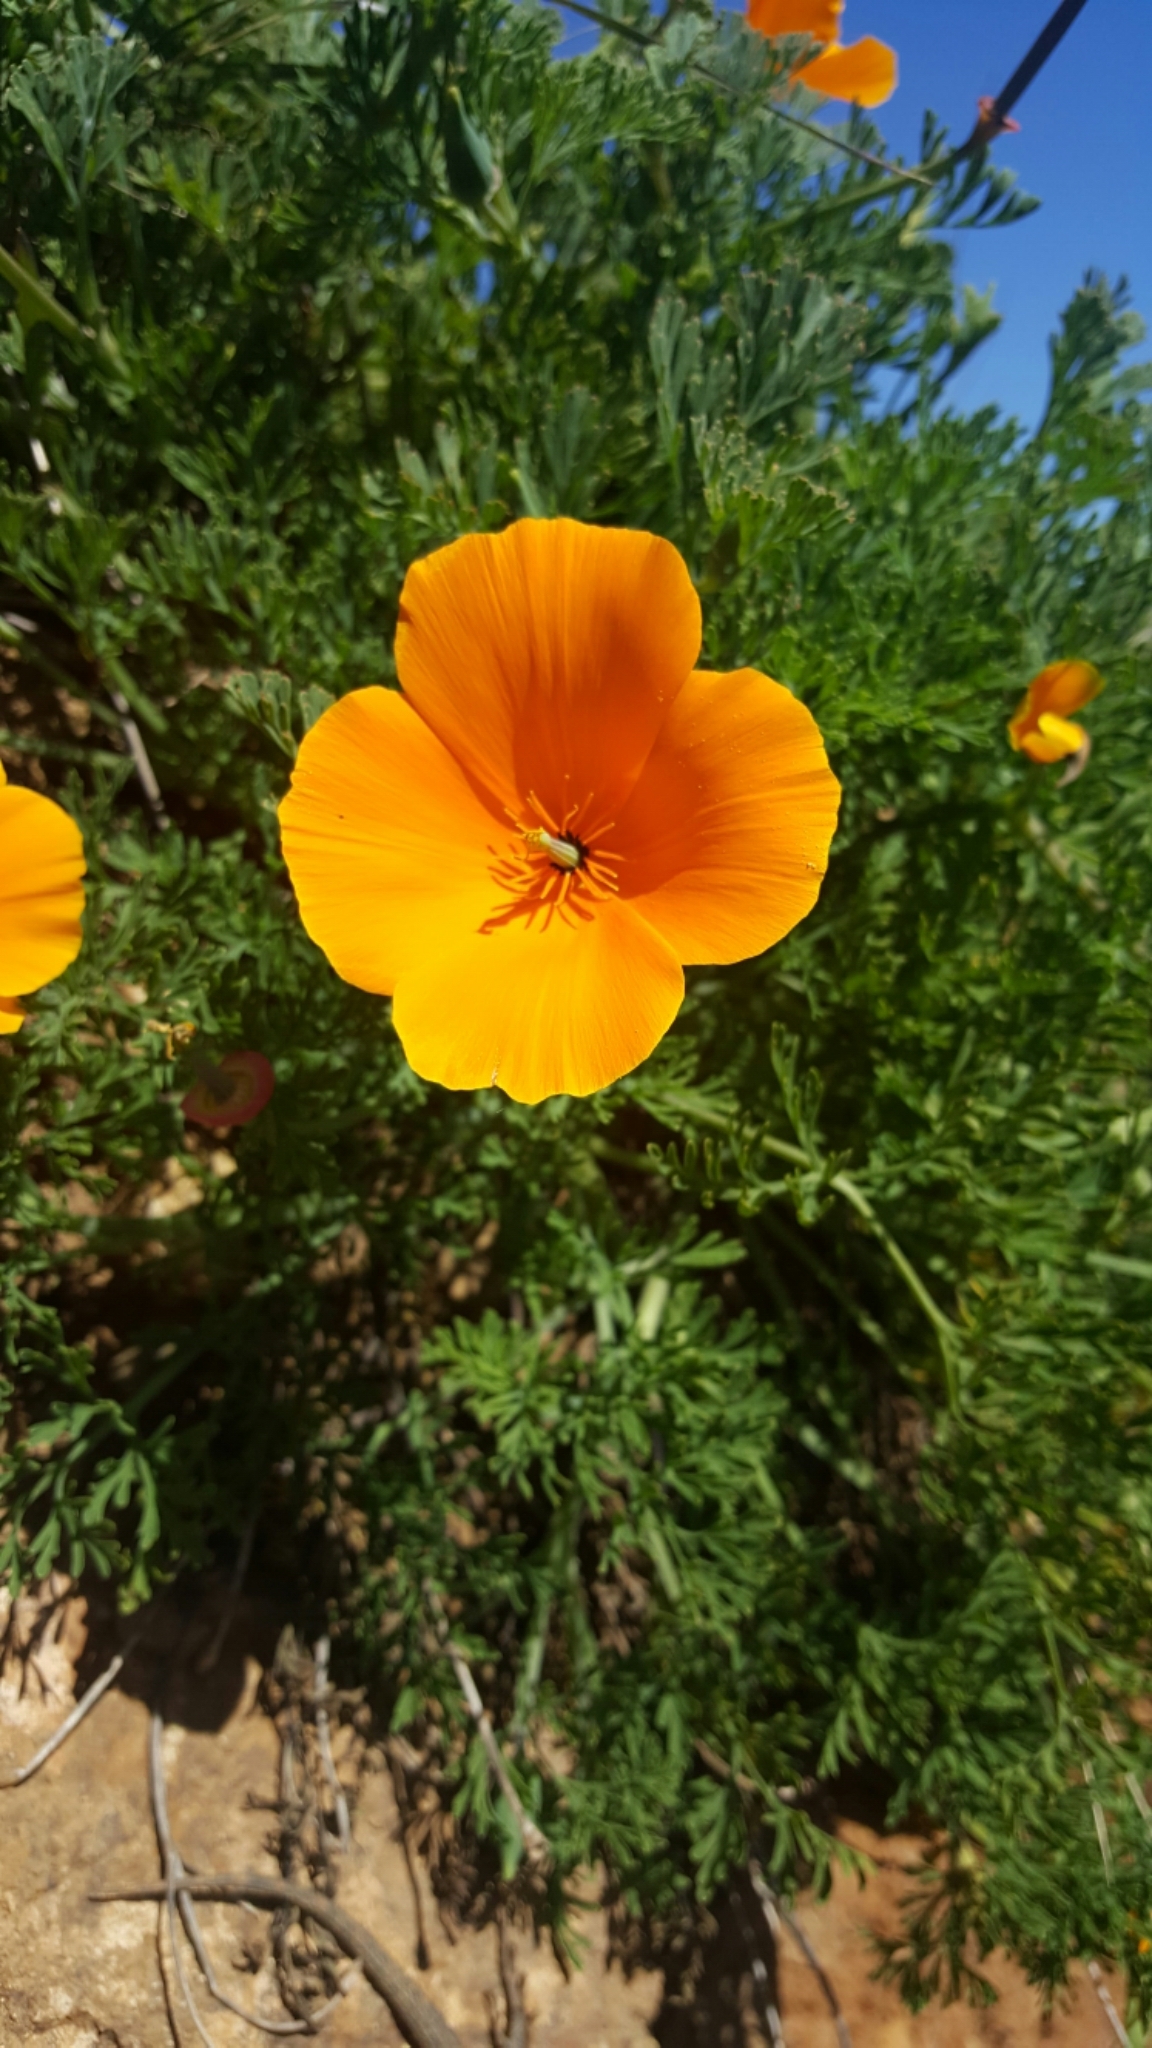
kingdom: Plantae
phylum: Tracheophyta
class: Magnoliopsida
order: Ranunculales
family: Papaveraceae
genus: Eschscholzia
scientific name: Eschscholzia californica
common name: California poppy
